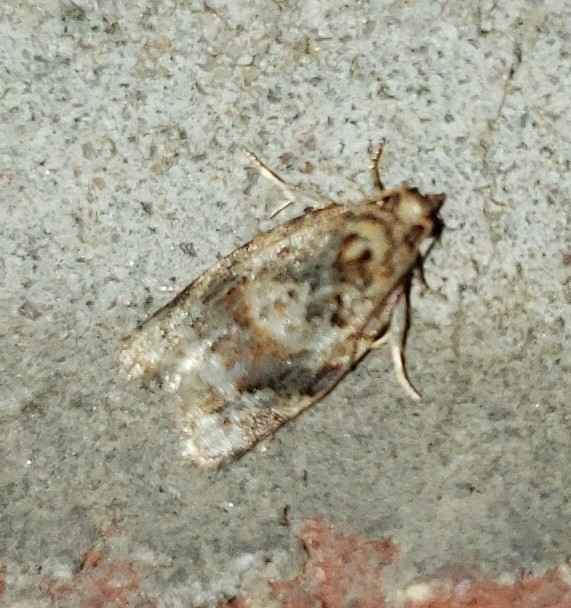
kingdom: Animalia
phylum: Arthropoda
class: Insecta
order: Lepidoptera
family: Tortricidae
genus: Argyrotaenia
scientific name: Argyrotaenia velutinana
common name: Red-banded leafroller moth
